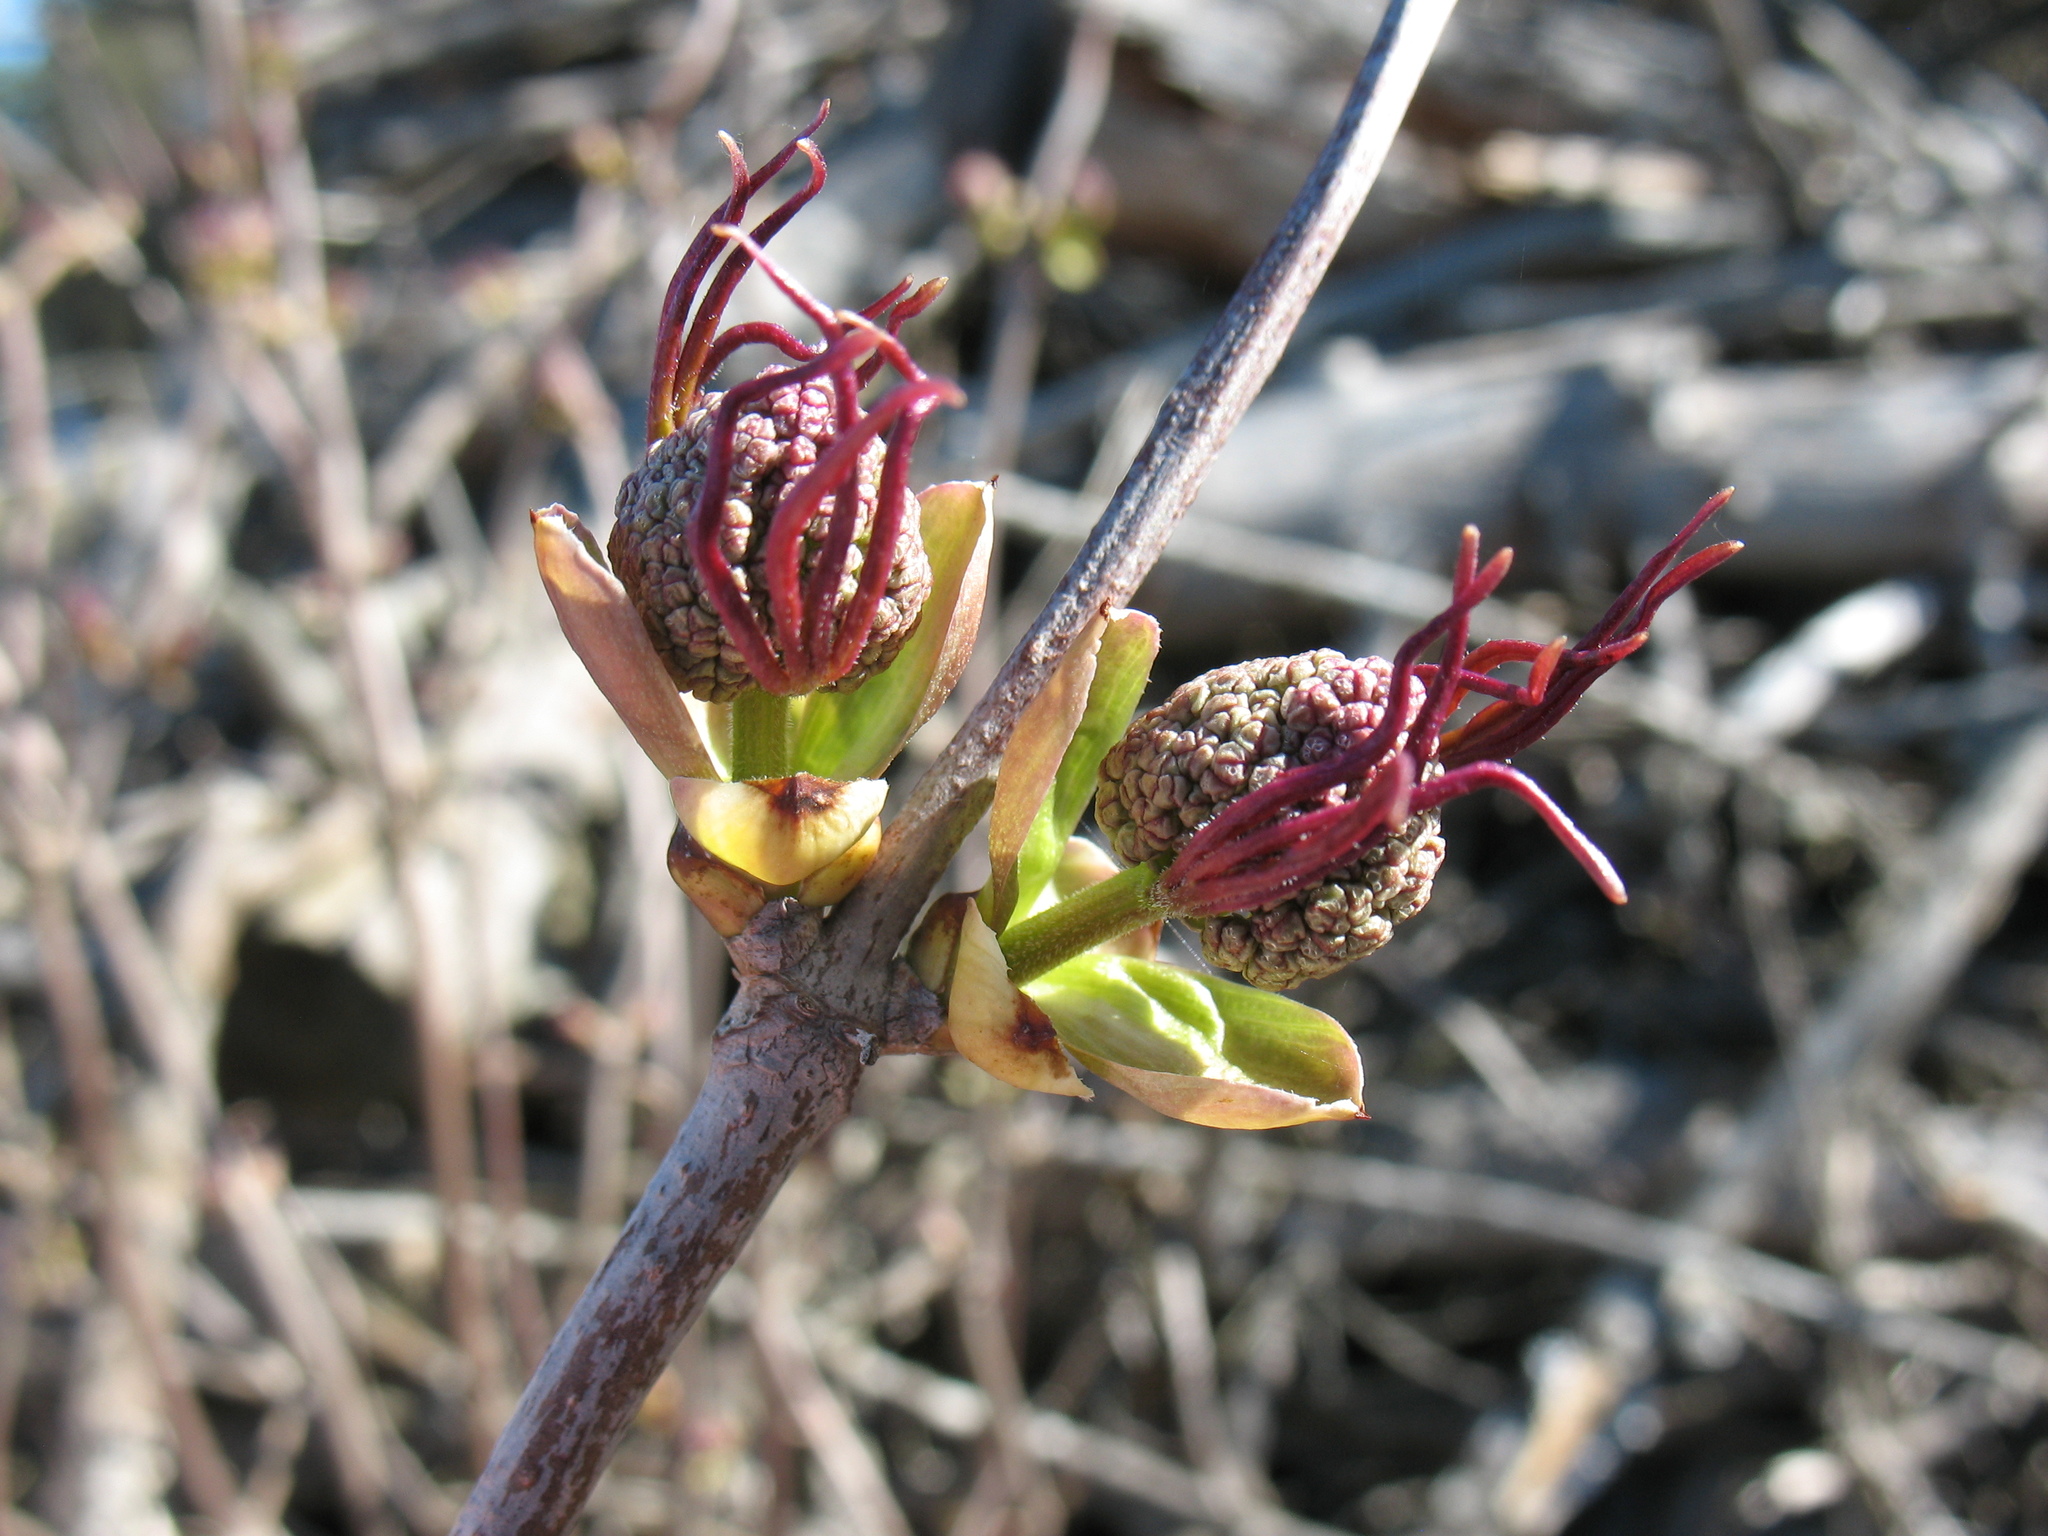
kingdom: Plantae
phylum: Tracheophyta
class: Magnoliopsida
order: Dipsacales
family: Viburnaceae
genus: Sambucus
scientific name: Sambucus racemosa
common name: Red-berried elder
